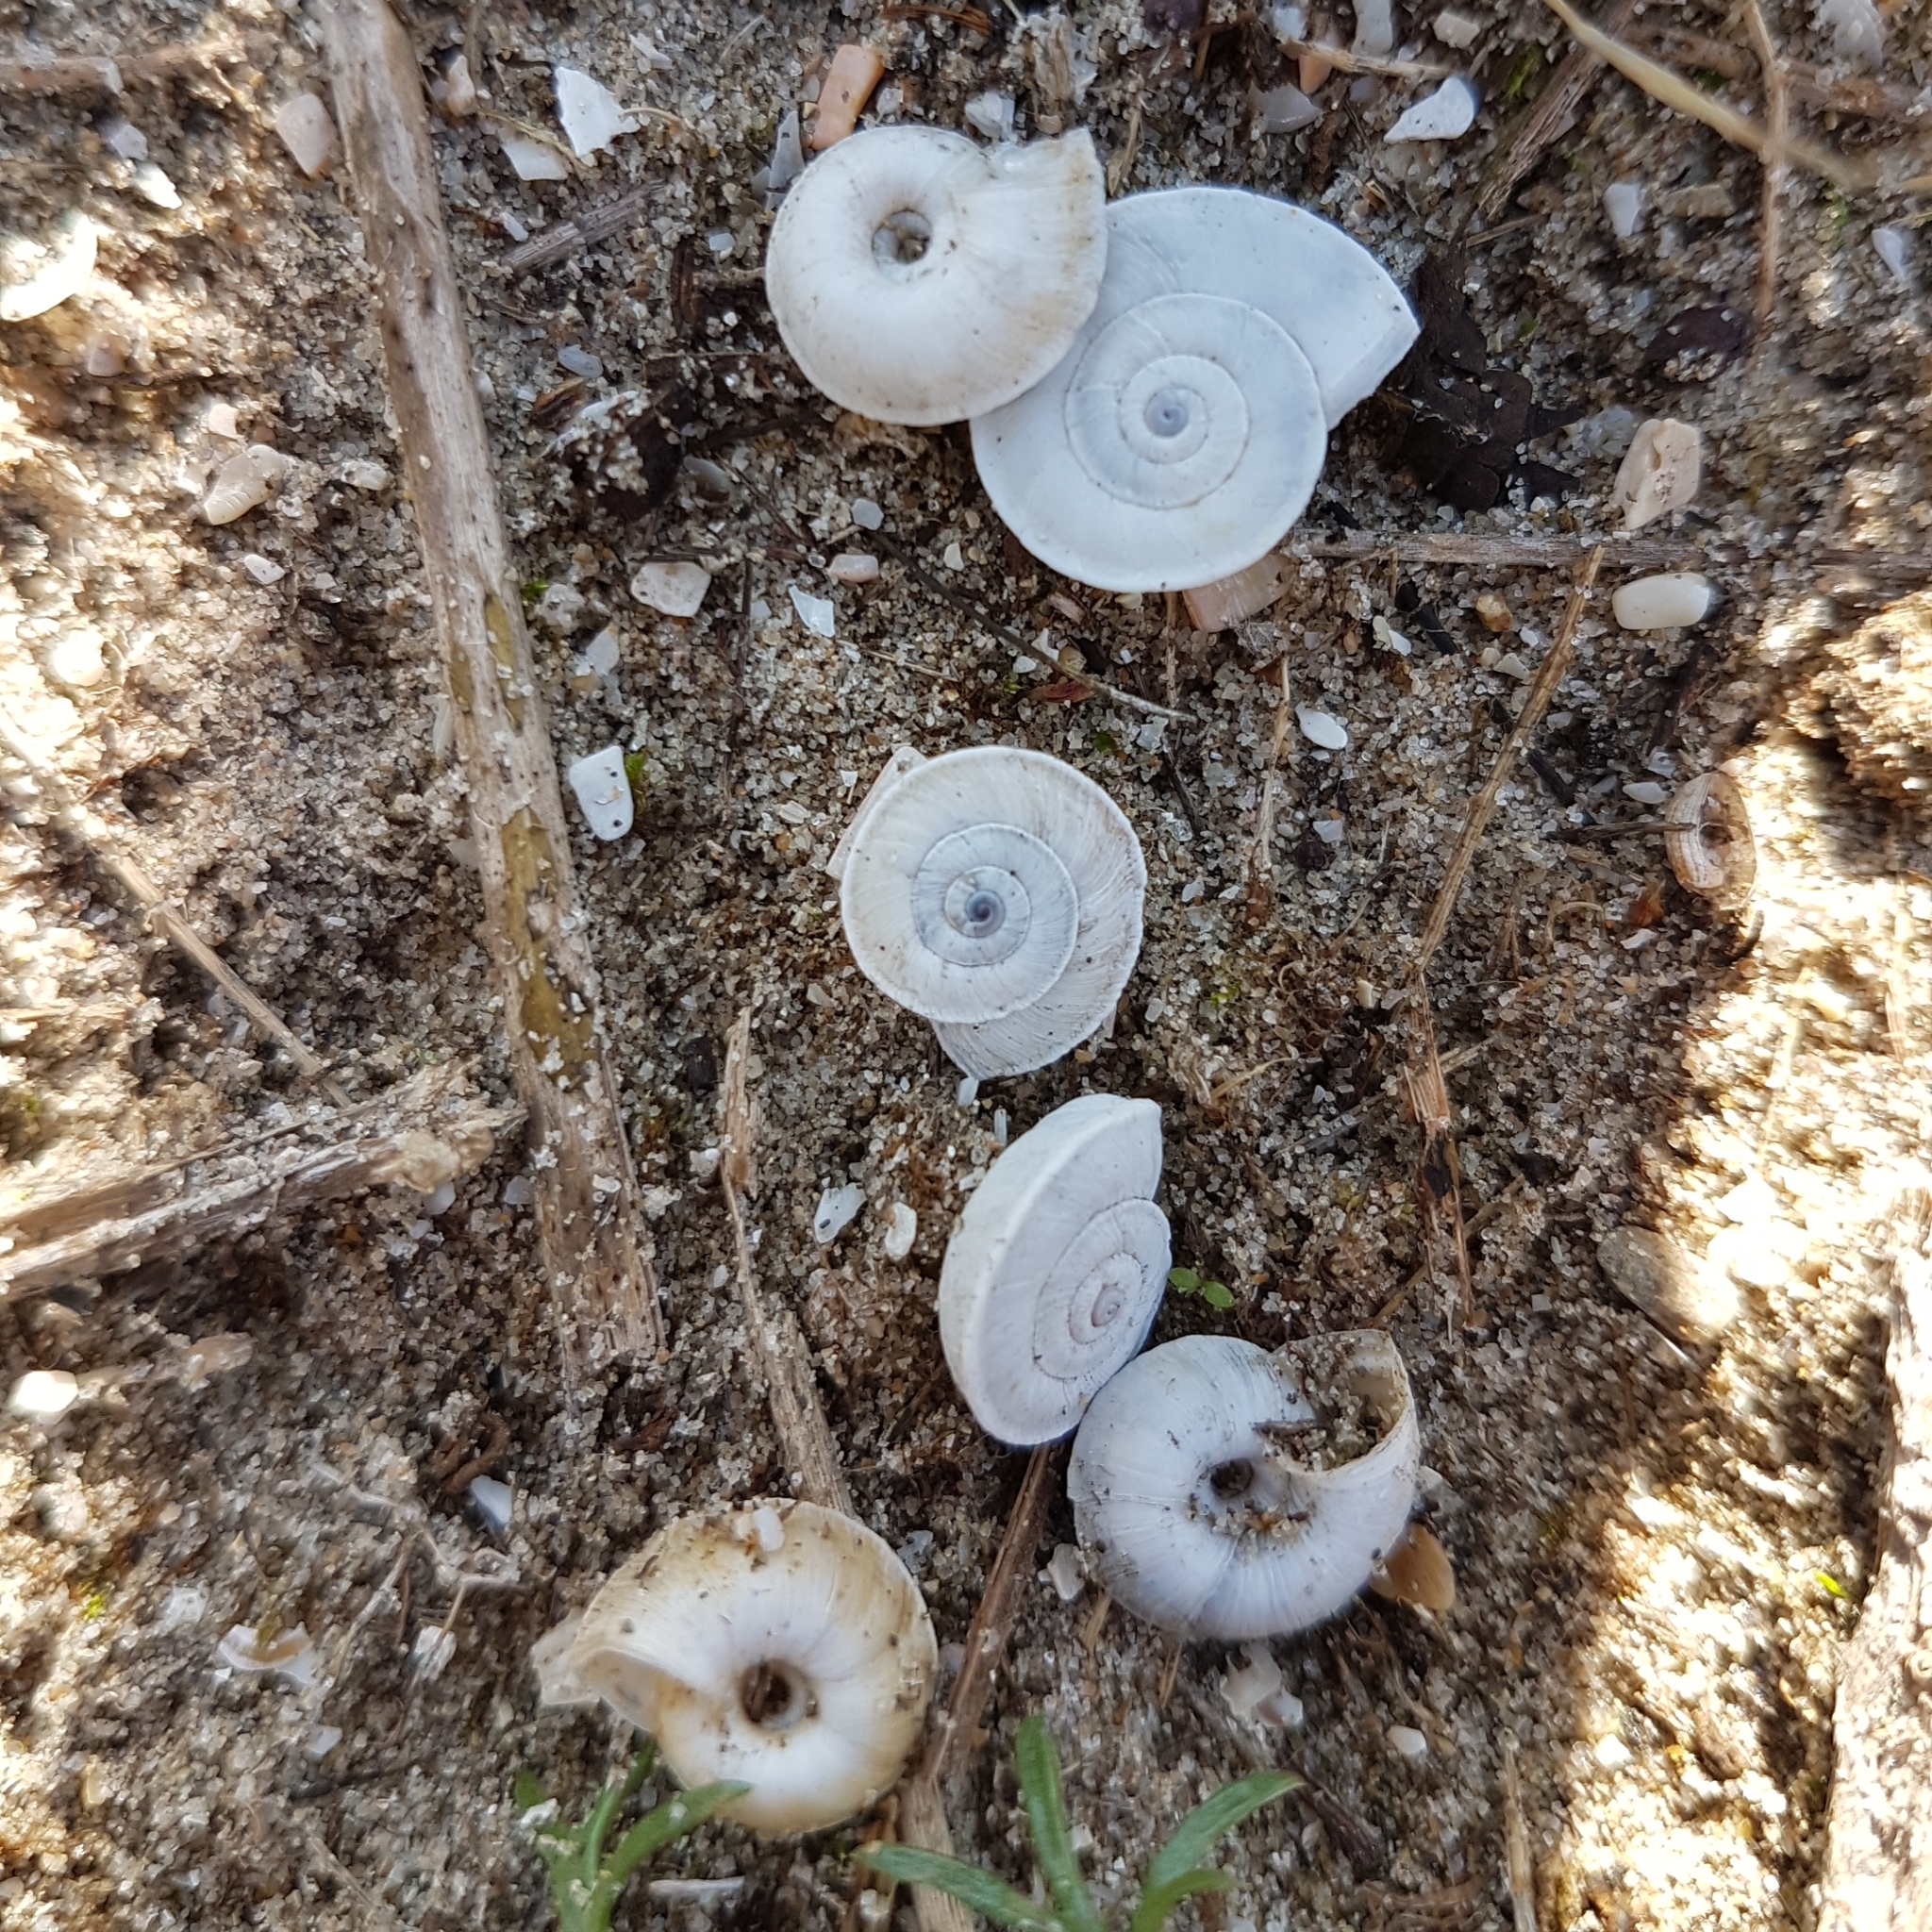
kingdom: Animalia
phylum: Mollusca
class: Gastropoda
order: Stylommatophora
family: Geomitridae
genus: Xerosecta
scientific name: Xerosecta explanata
